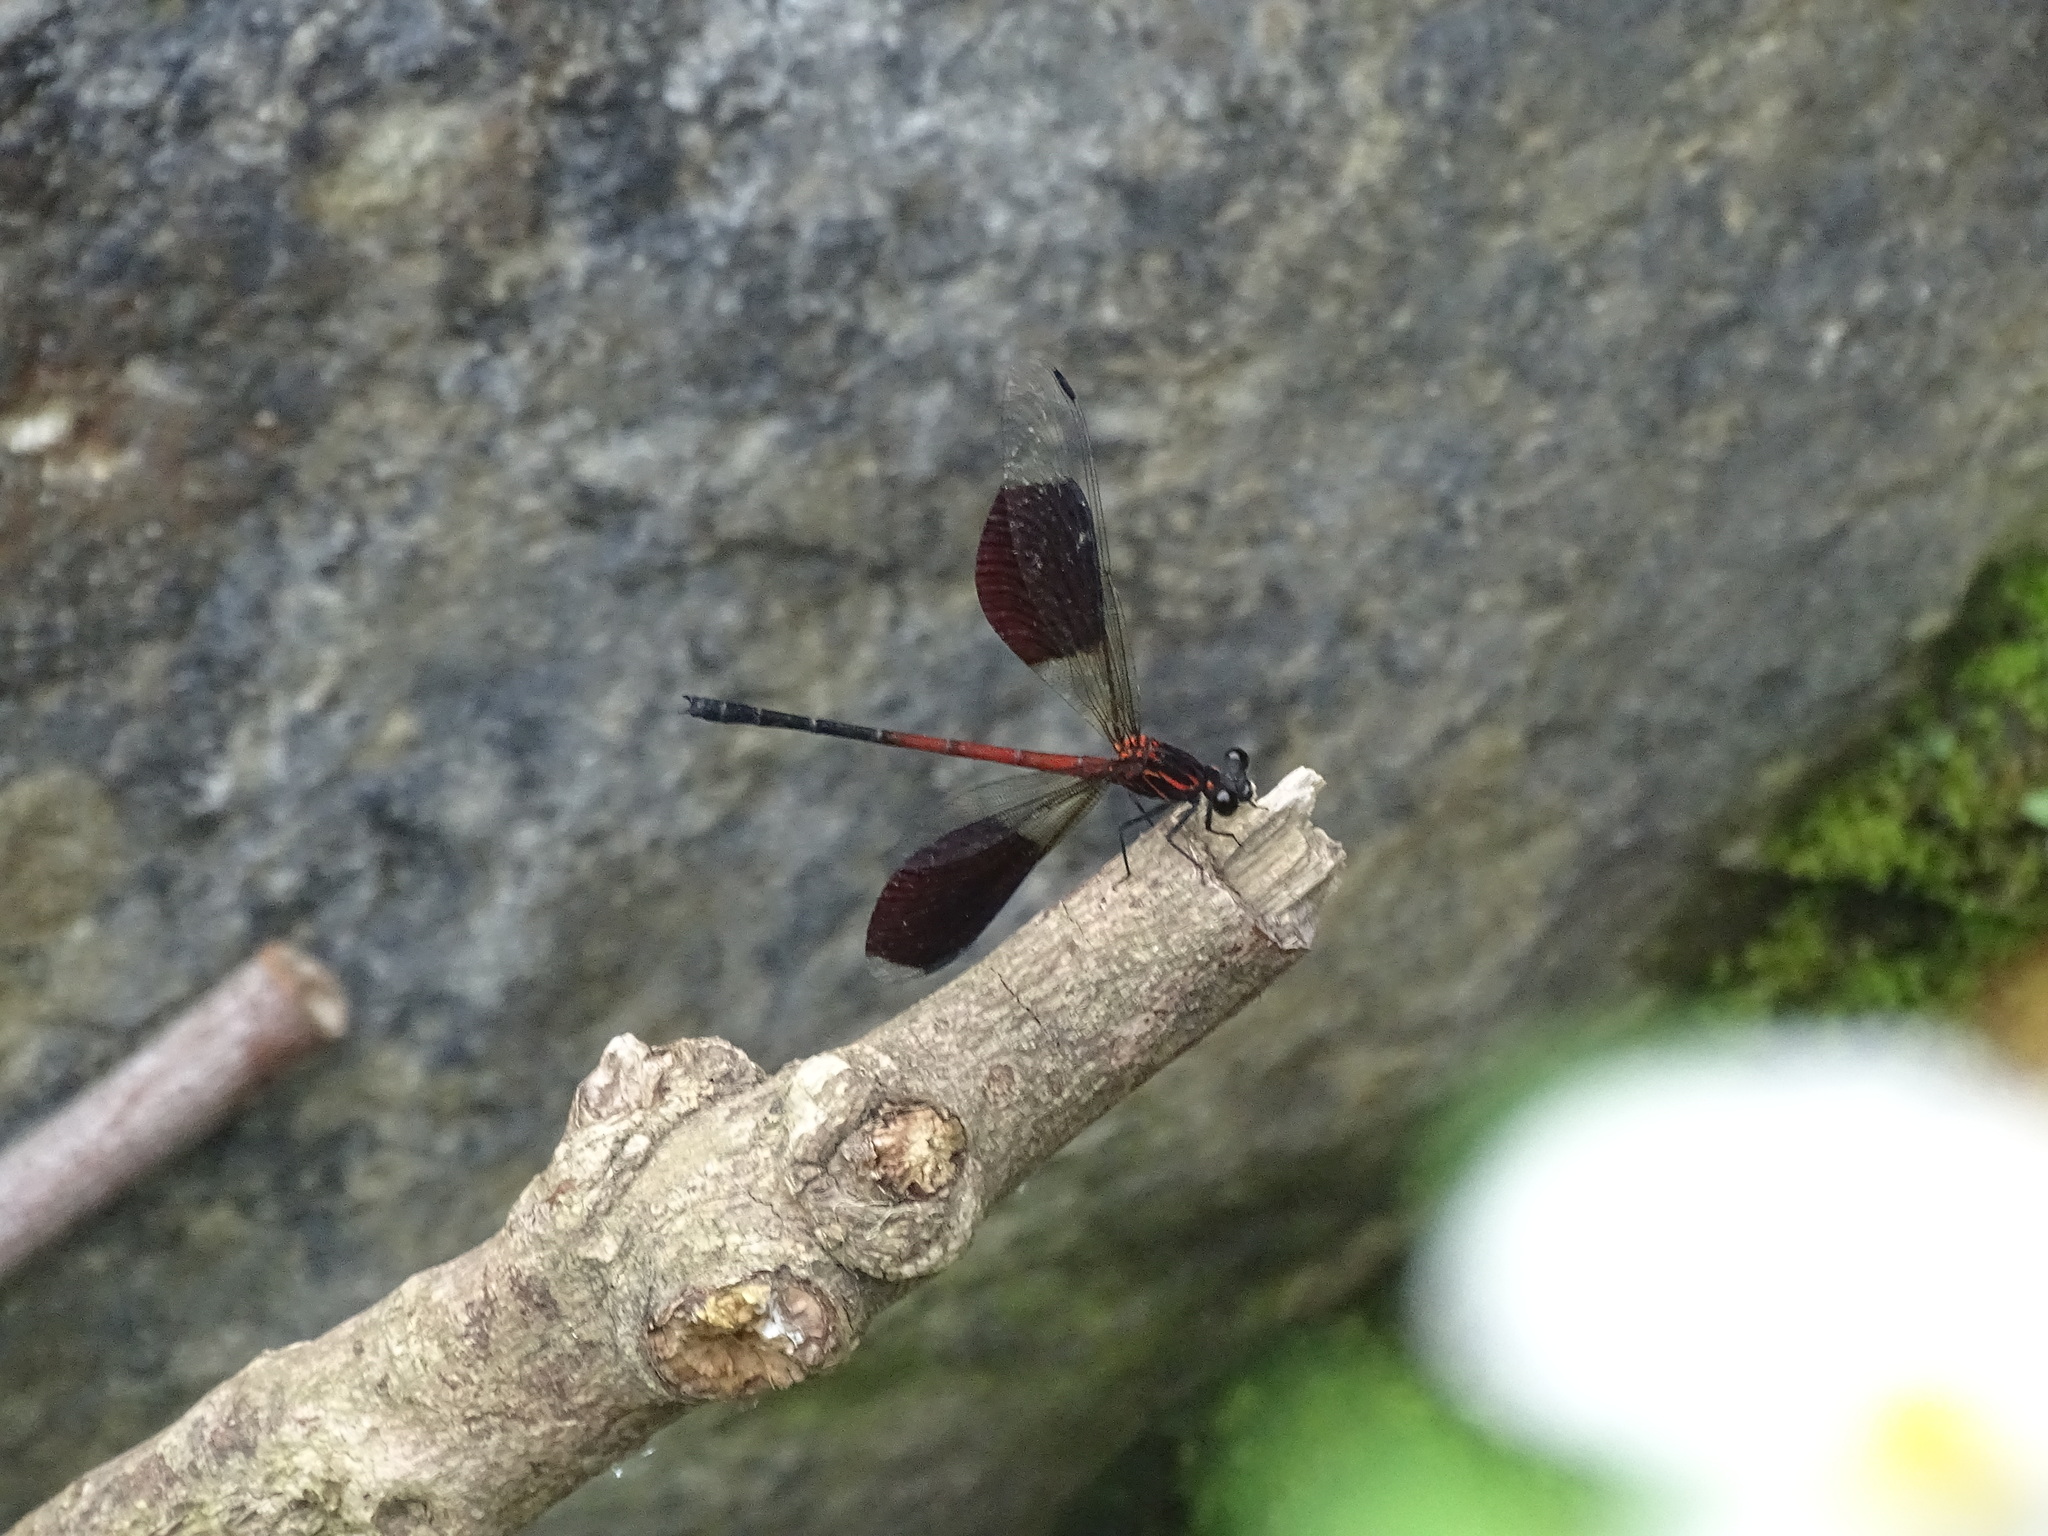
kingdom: Animalia
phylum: Arthropoda
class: Insecta
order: Odonata
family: Euphaeidae
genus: Euphaea
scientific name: Euphaea formosa
